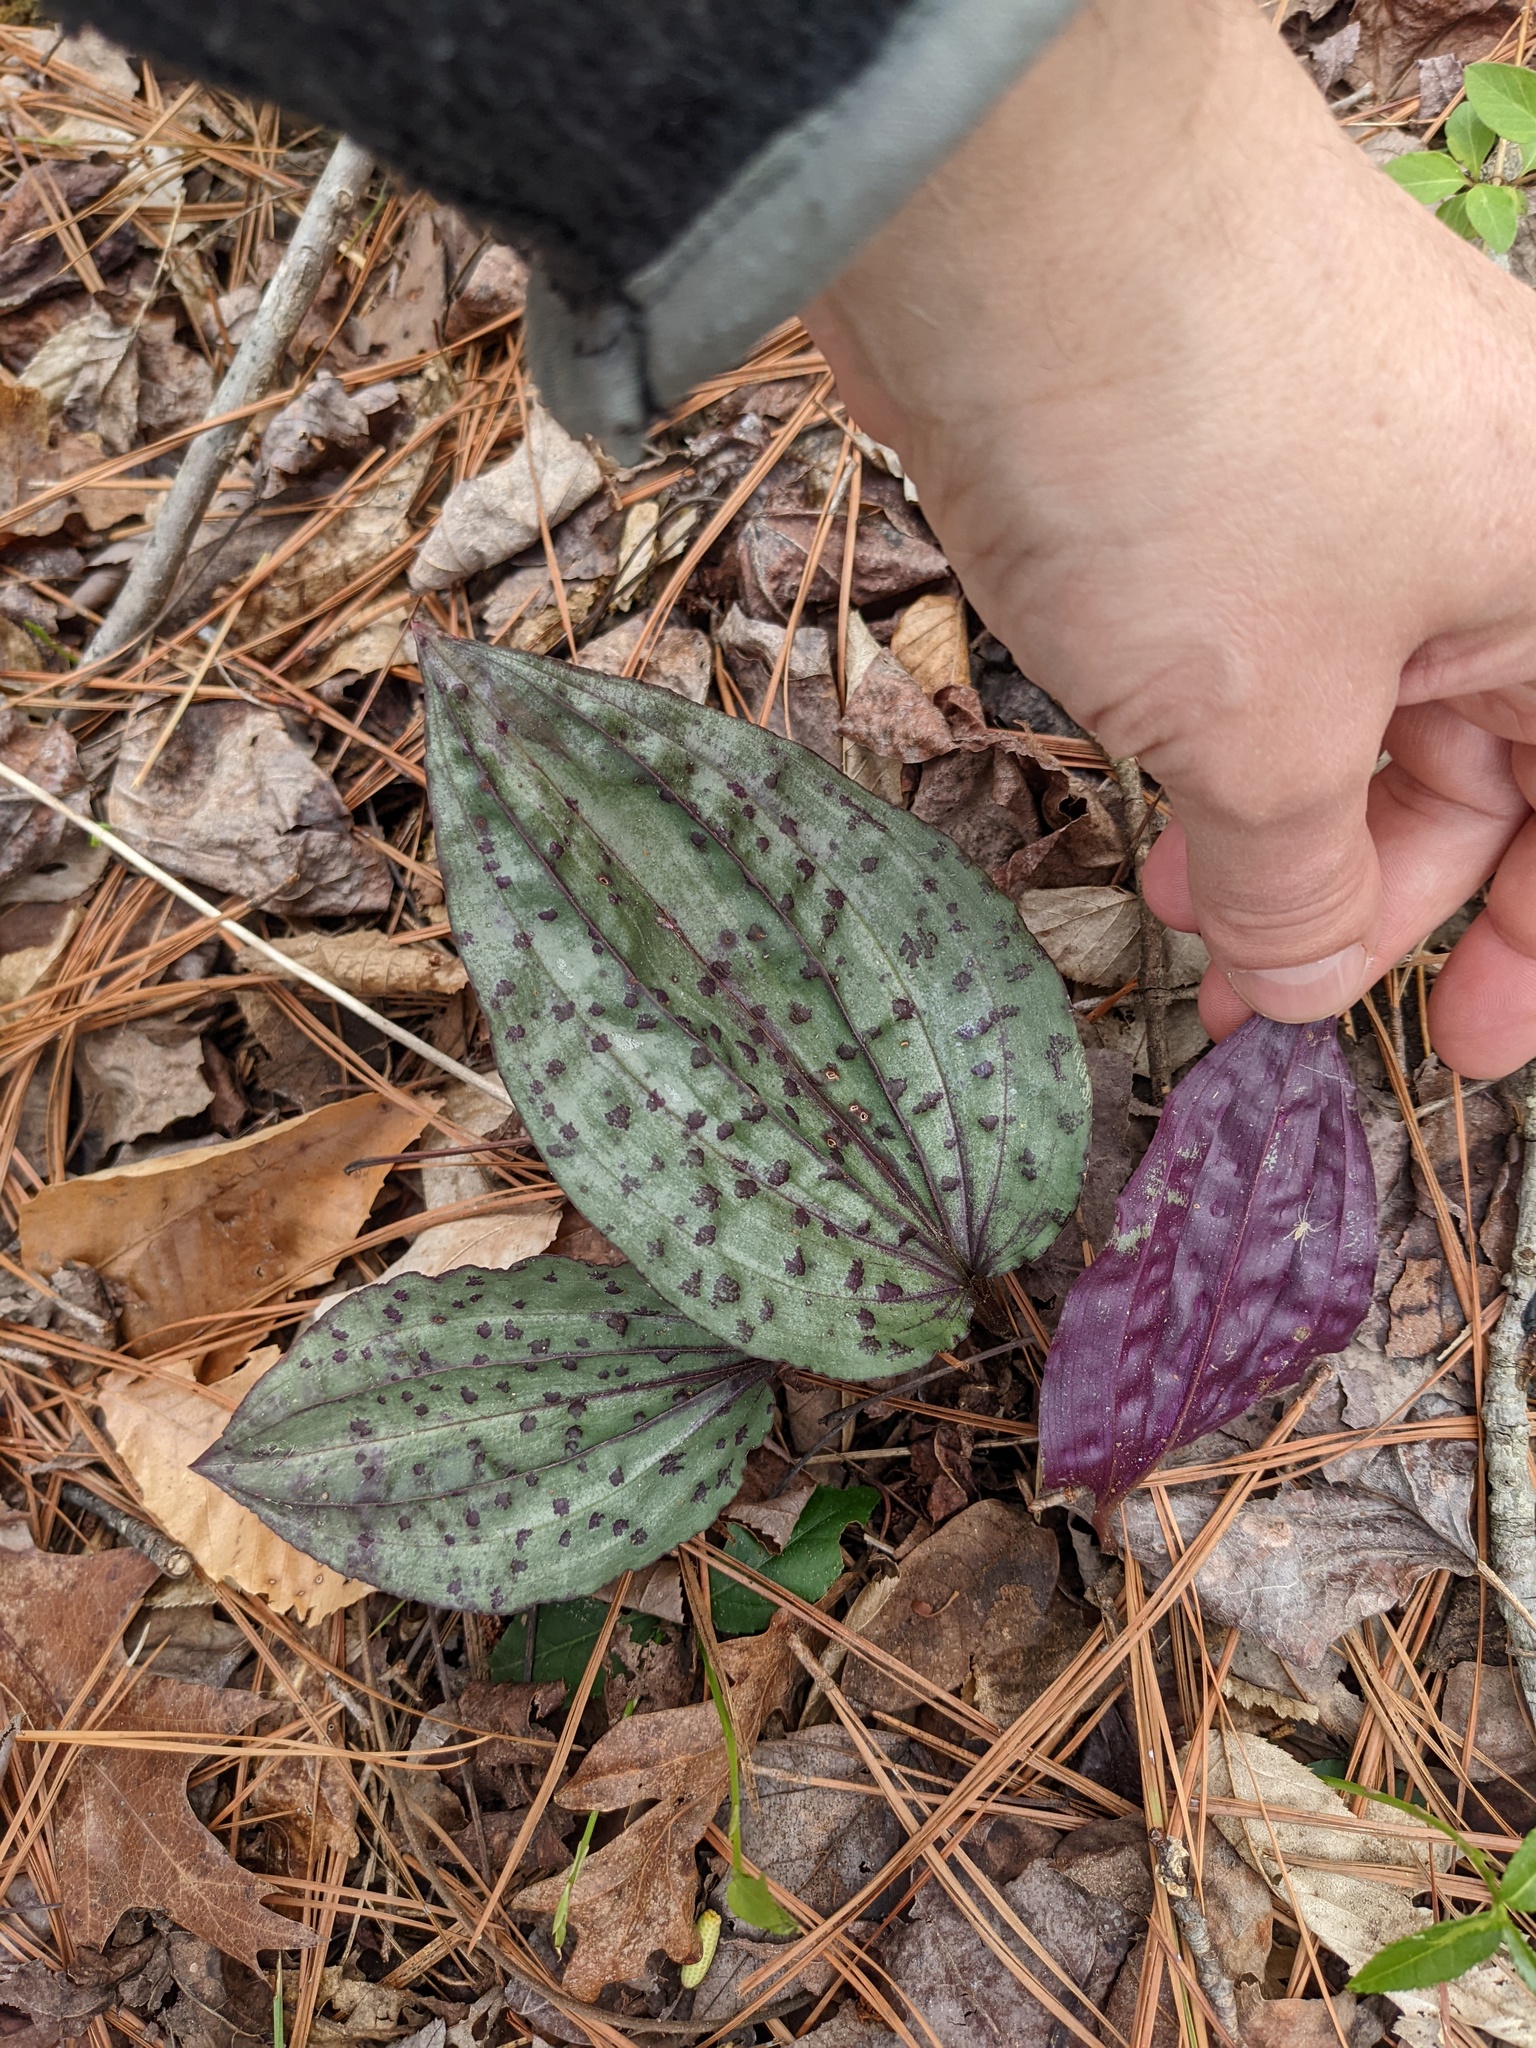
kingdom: Plantae
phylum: Tracheophyta
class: Liliopsida
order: Asparagales
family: Orchidaceae
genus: Tipularia
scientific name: Tipularia discolor
